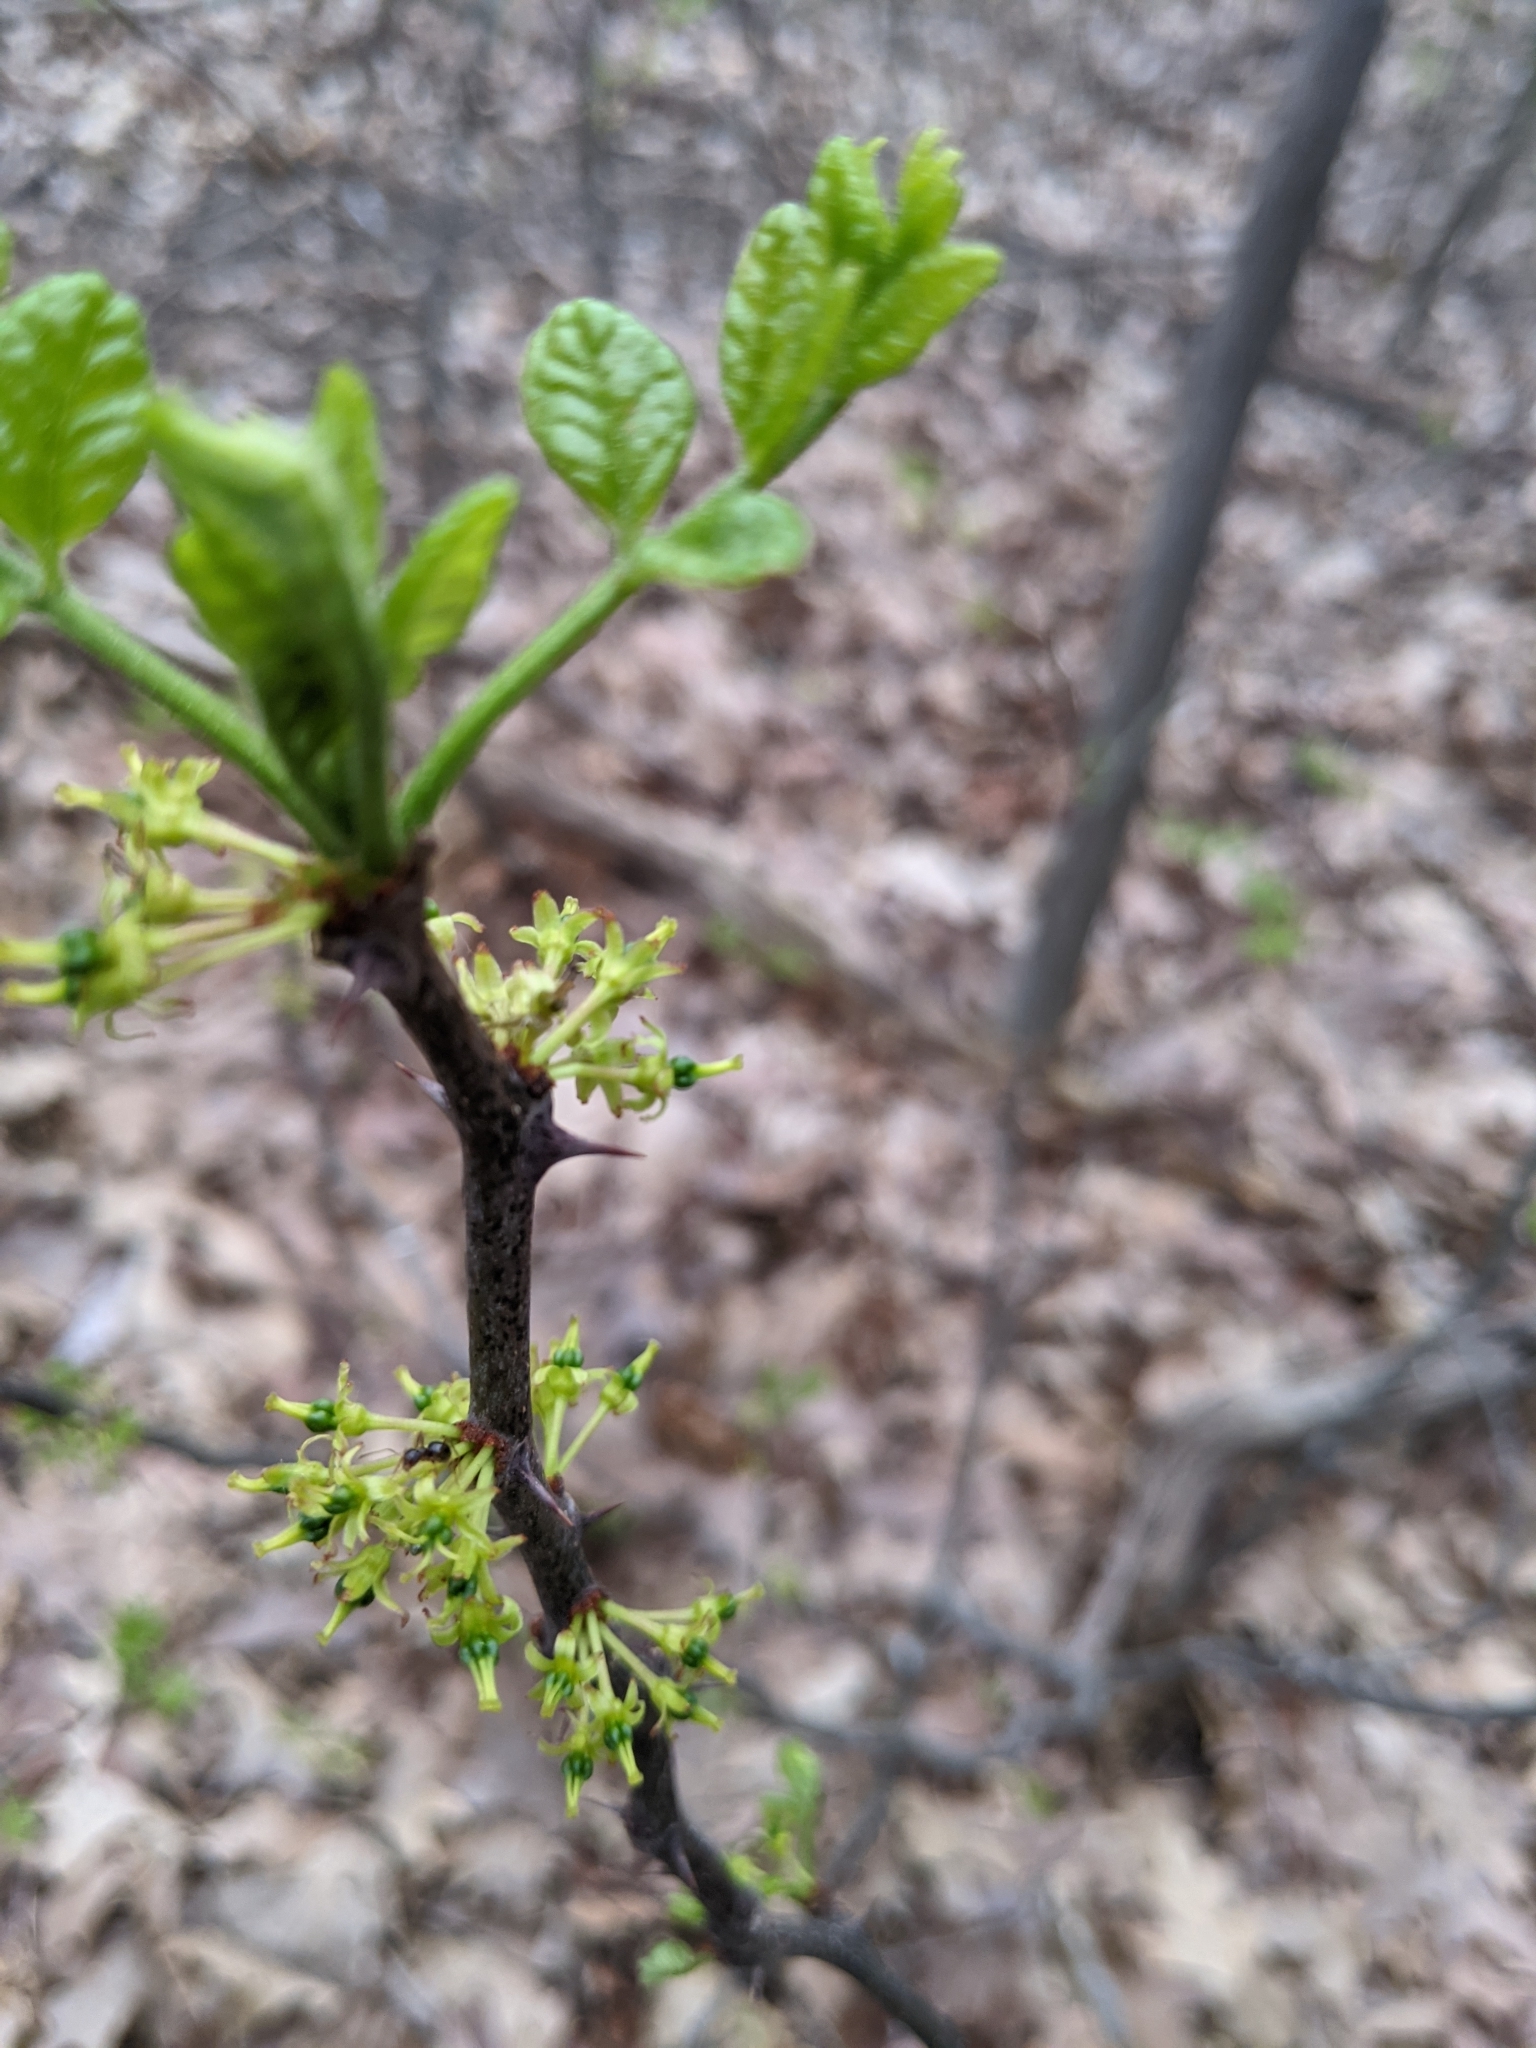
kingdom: Plantae
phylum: Tracheophyta
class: Magnoliopsida
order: Sapindales
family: Rutaceae
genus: Zanthoxylum
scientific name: Zanthoxylum americanum
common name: Northern prickly-ash
